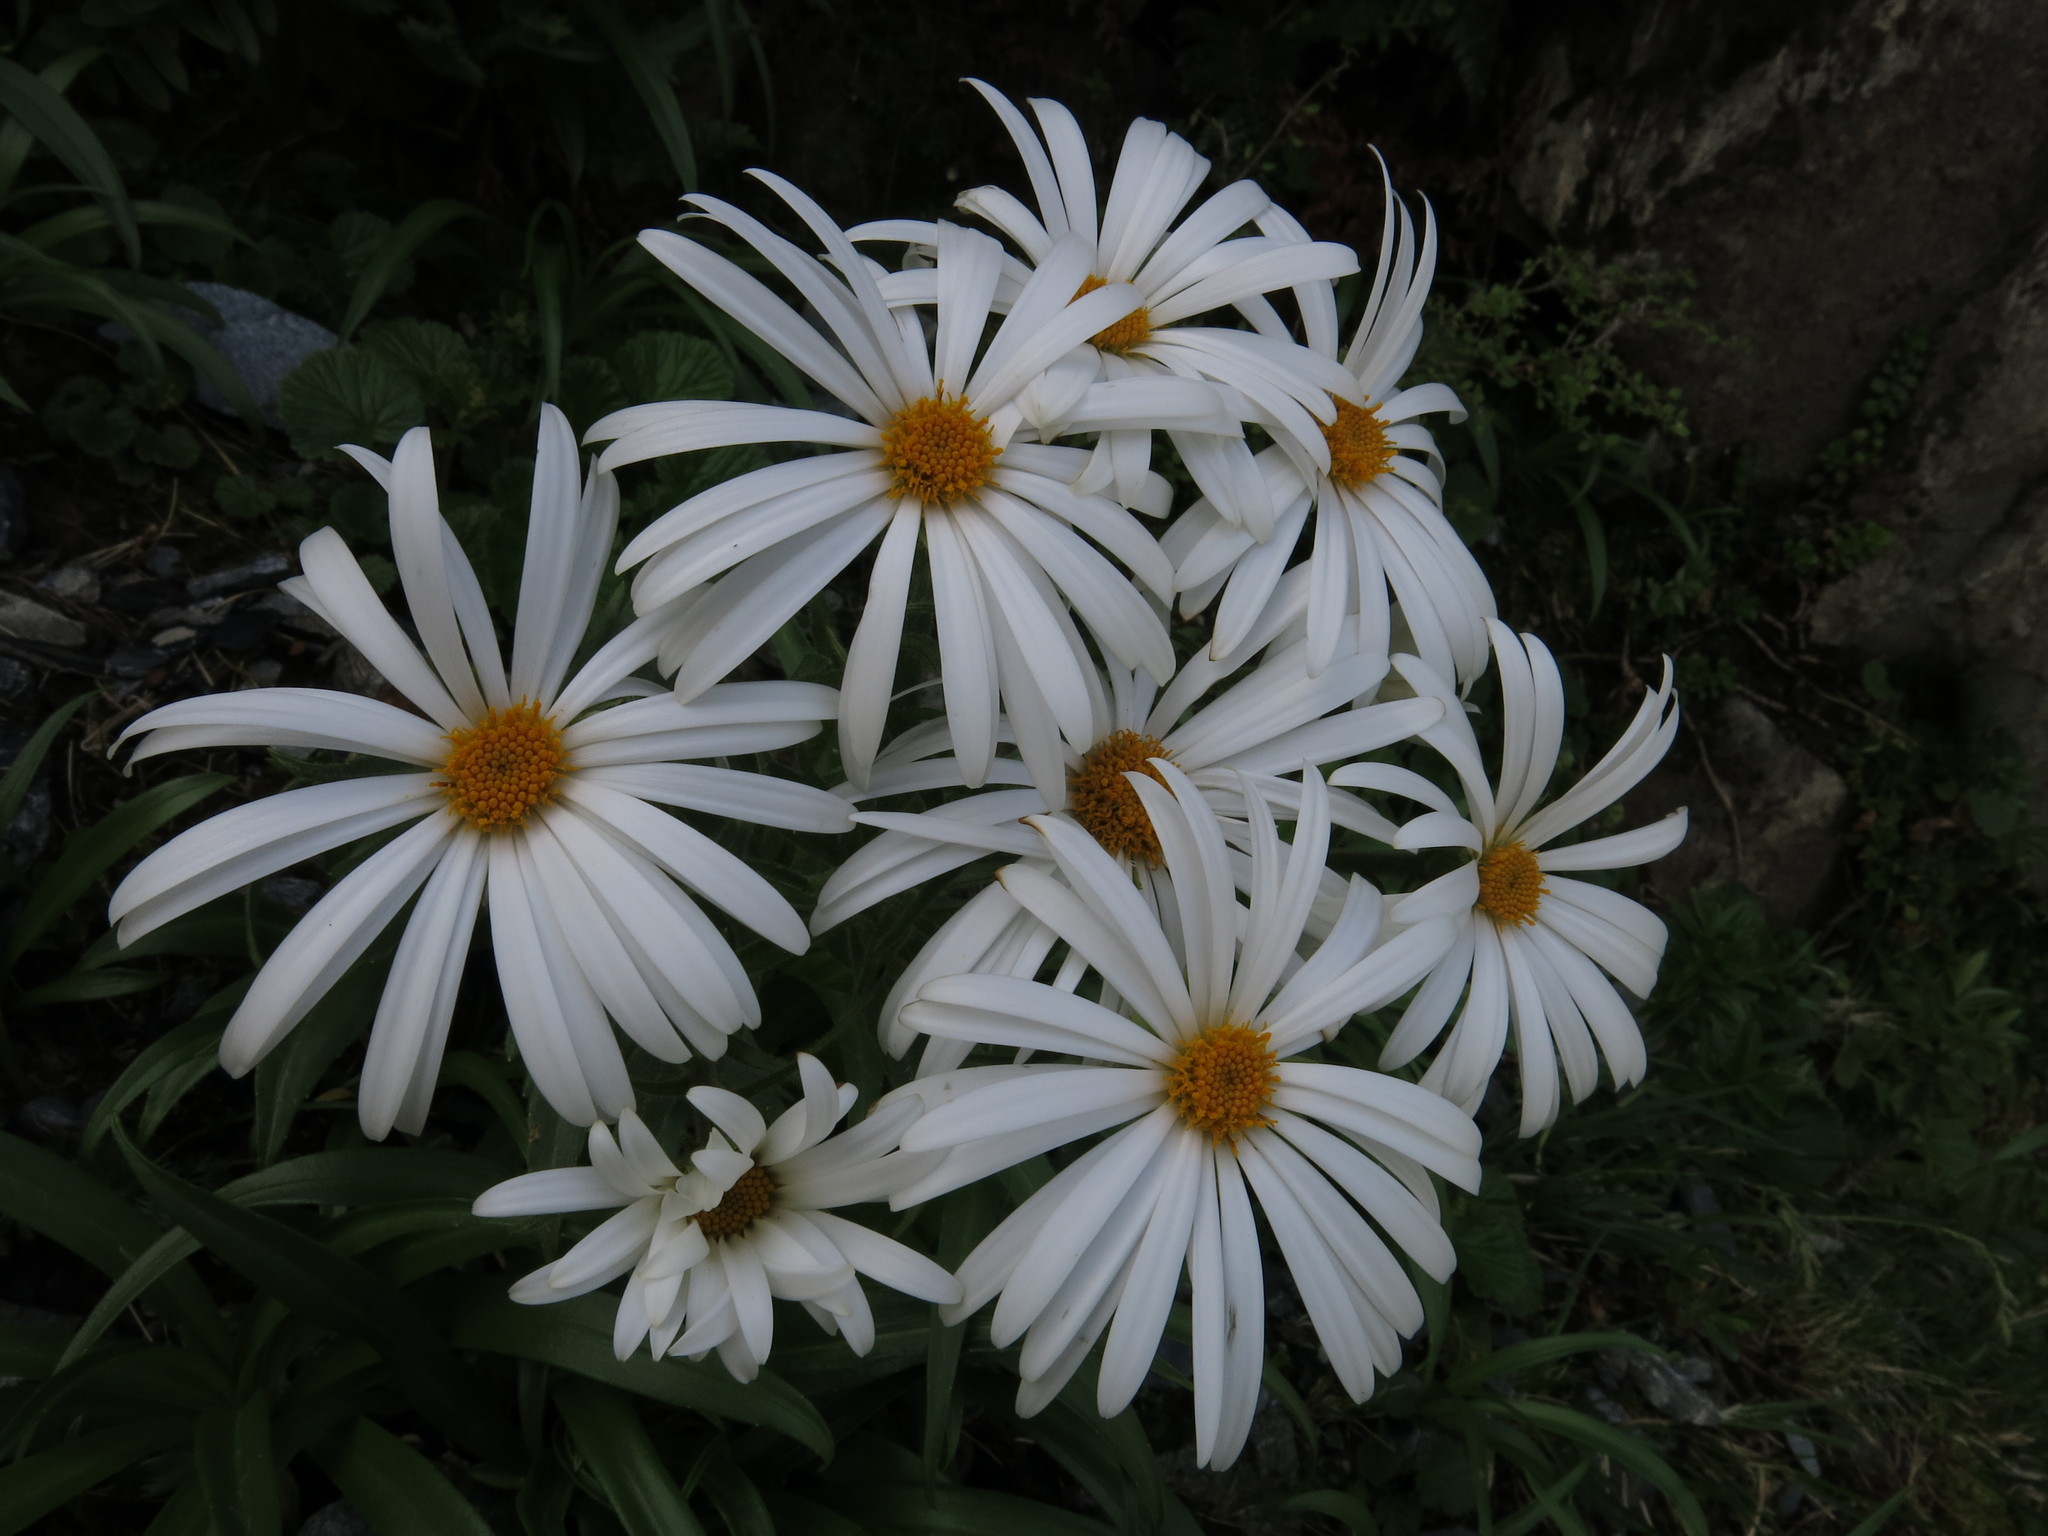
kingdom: Plantae
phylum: Tracheophyta
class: Magnoliopsida
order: Asterales
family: Asteraceae
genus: Dolichoglottis
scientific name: Dolichoglottis scorzoneroides
